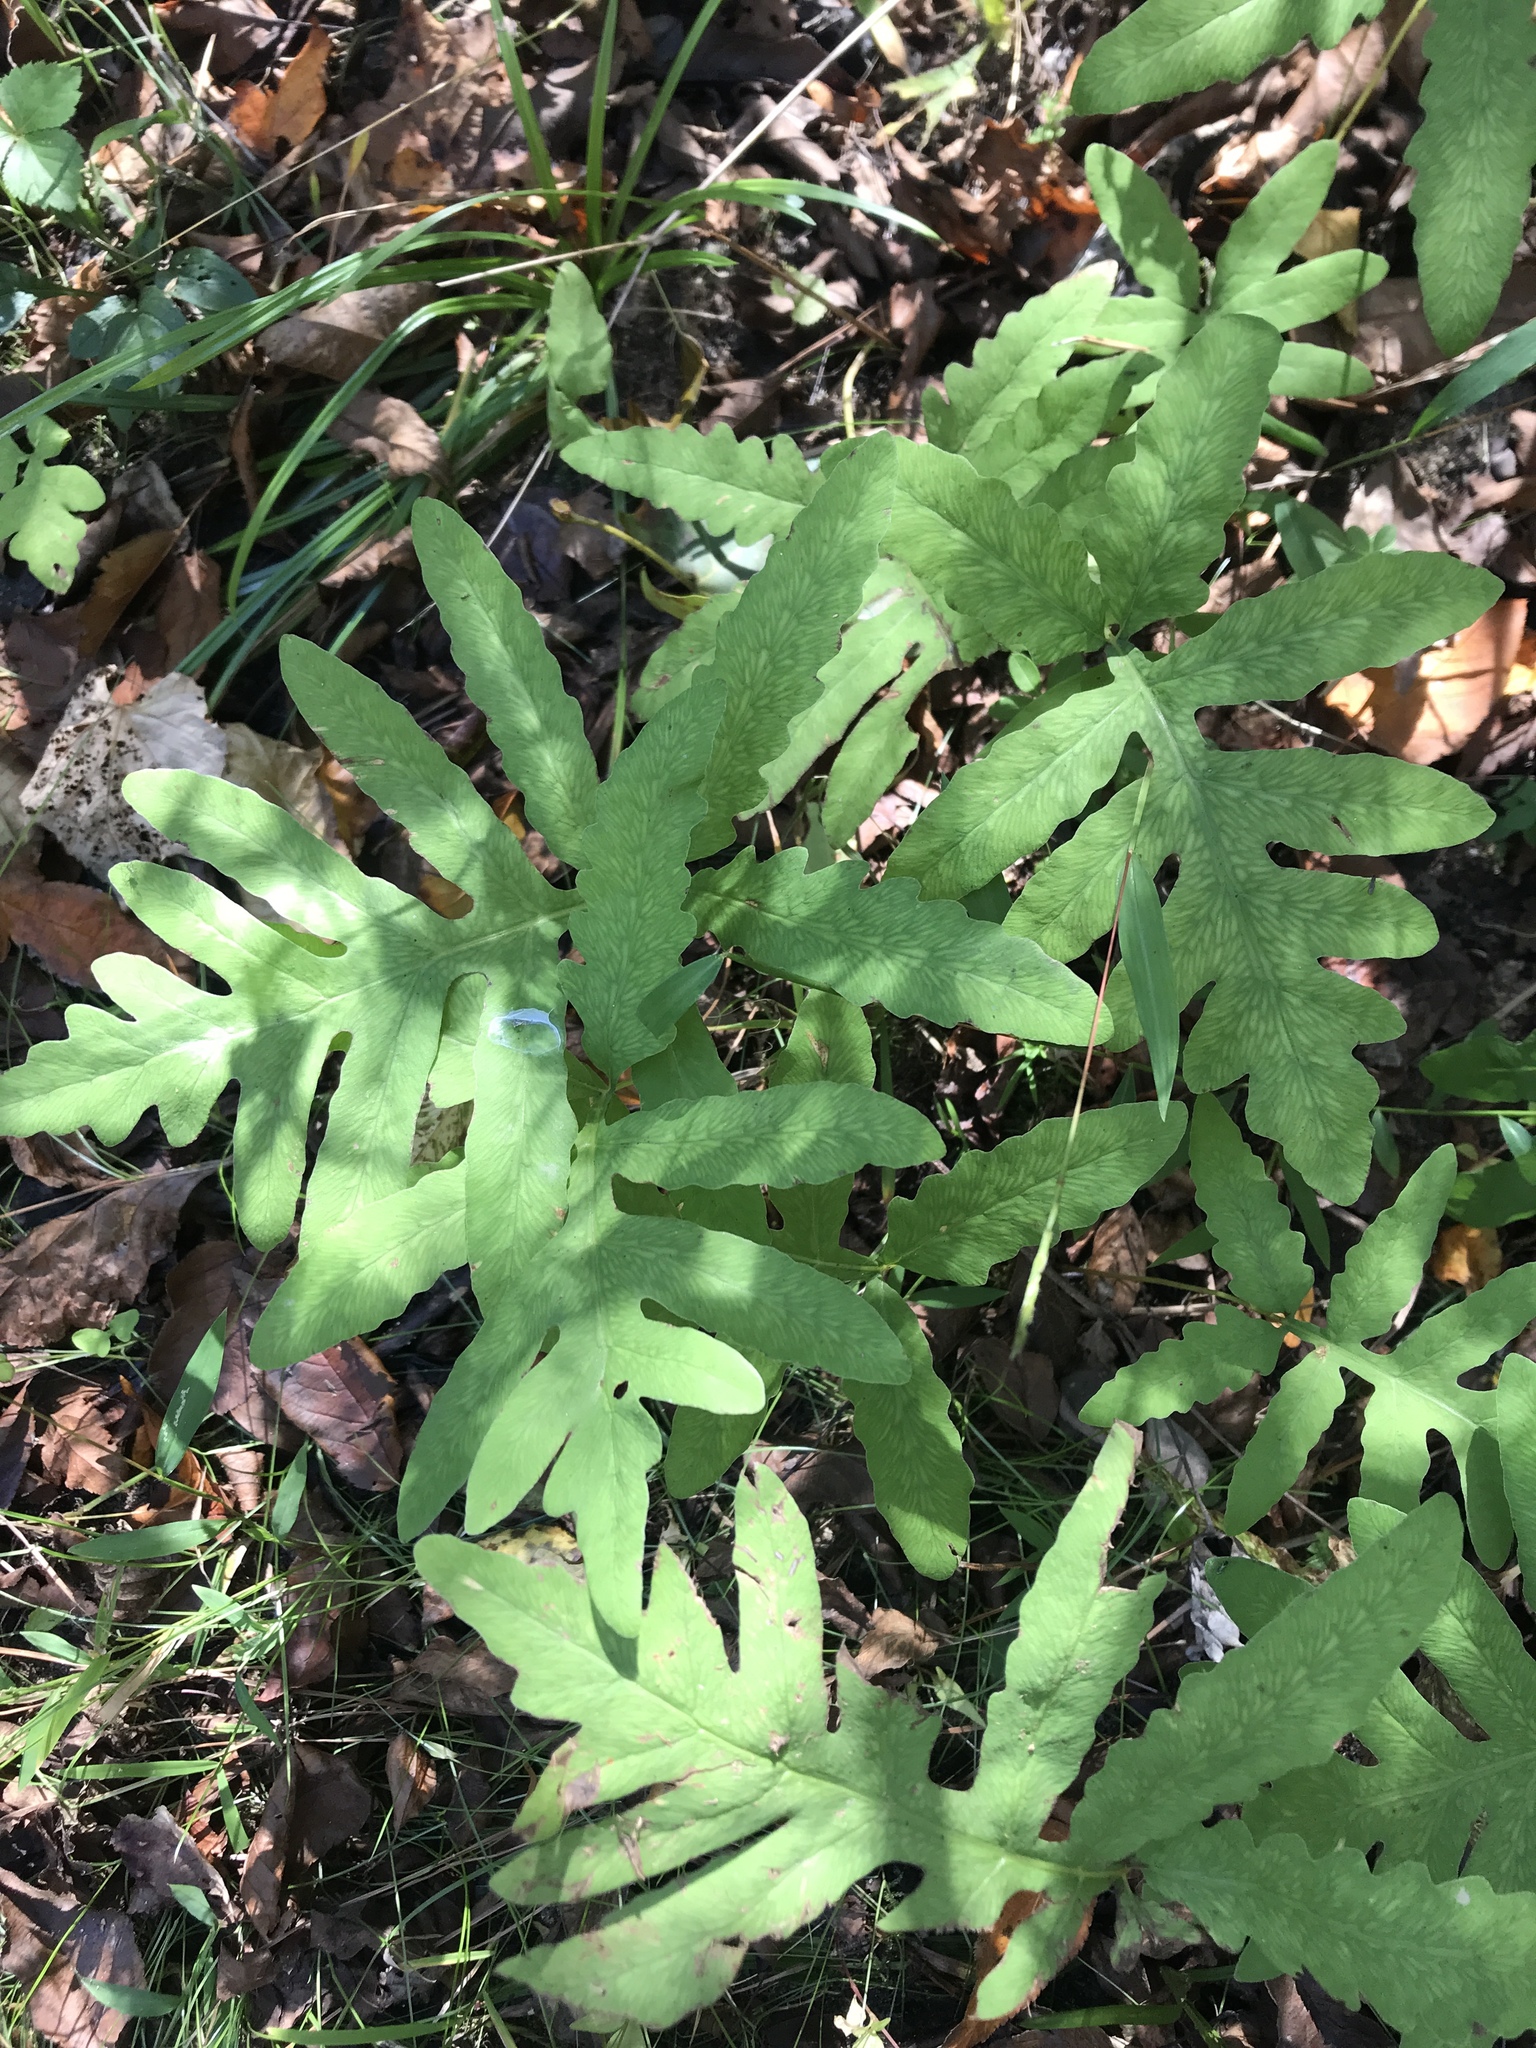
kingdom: Plantae
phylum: Tracheophyta
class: Polypodiopsida
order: Polypodiales
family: Onocleaceae
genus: Onoclea
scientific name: Onoclea sensibilis
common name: Sensitive fern
